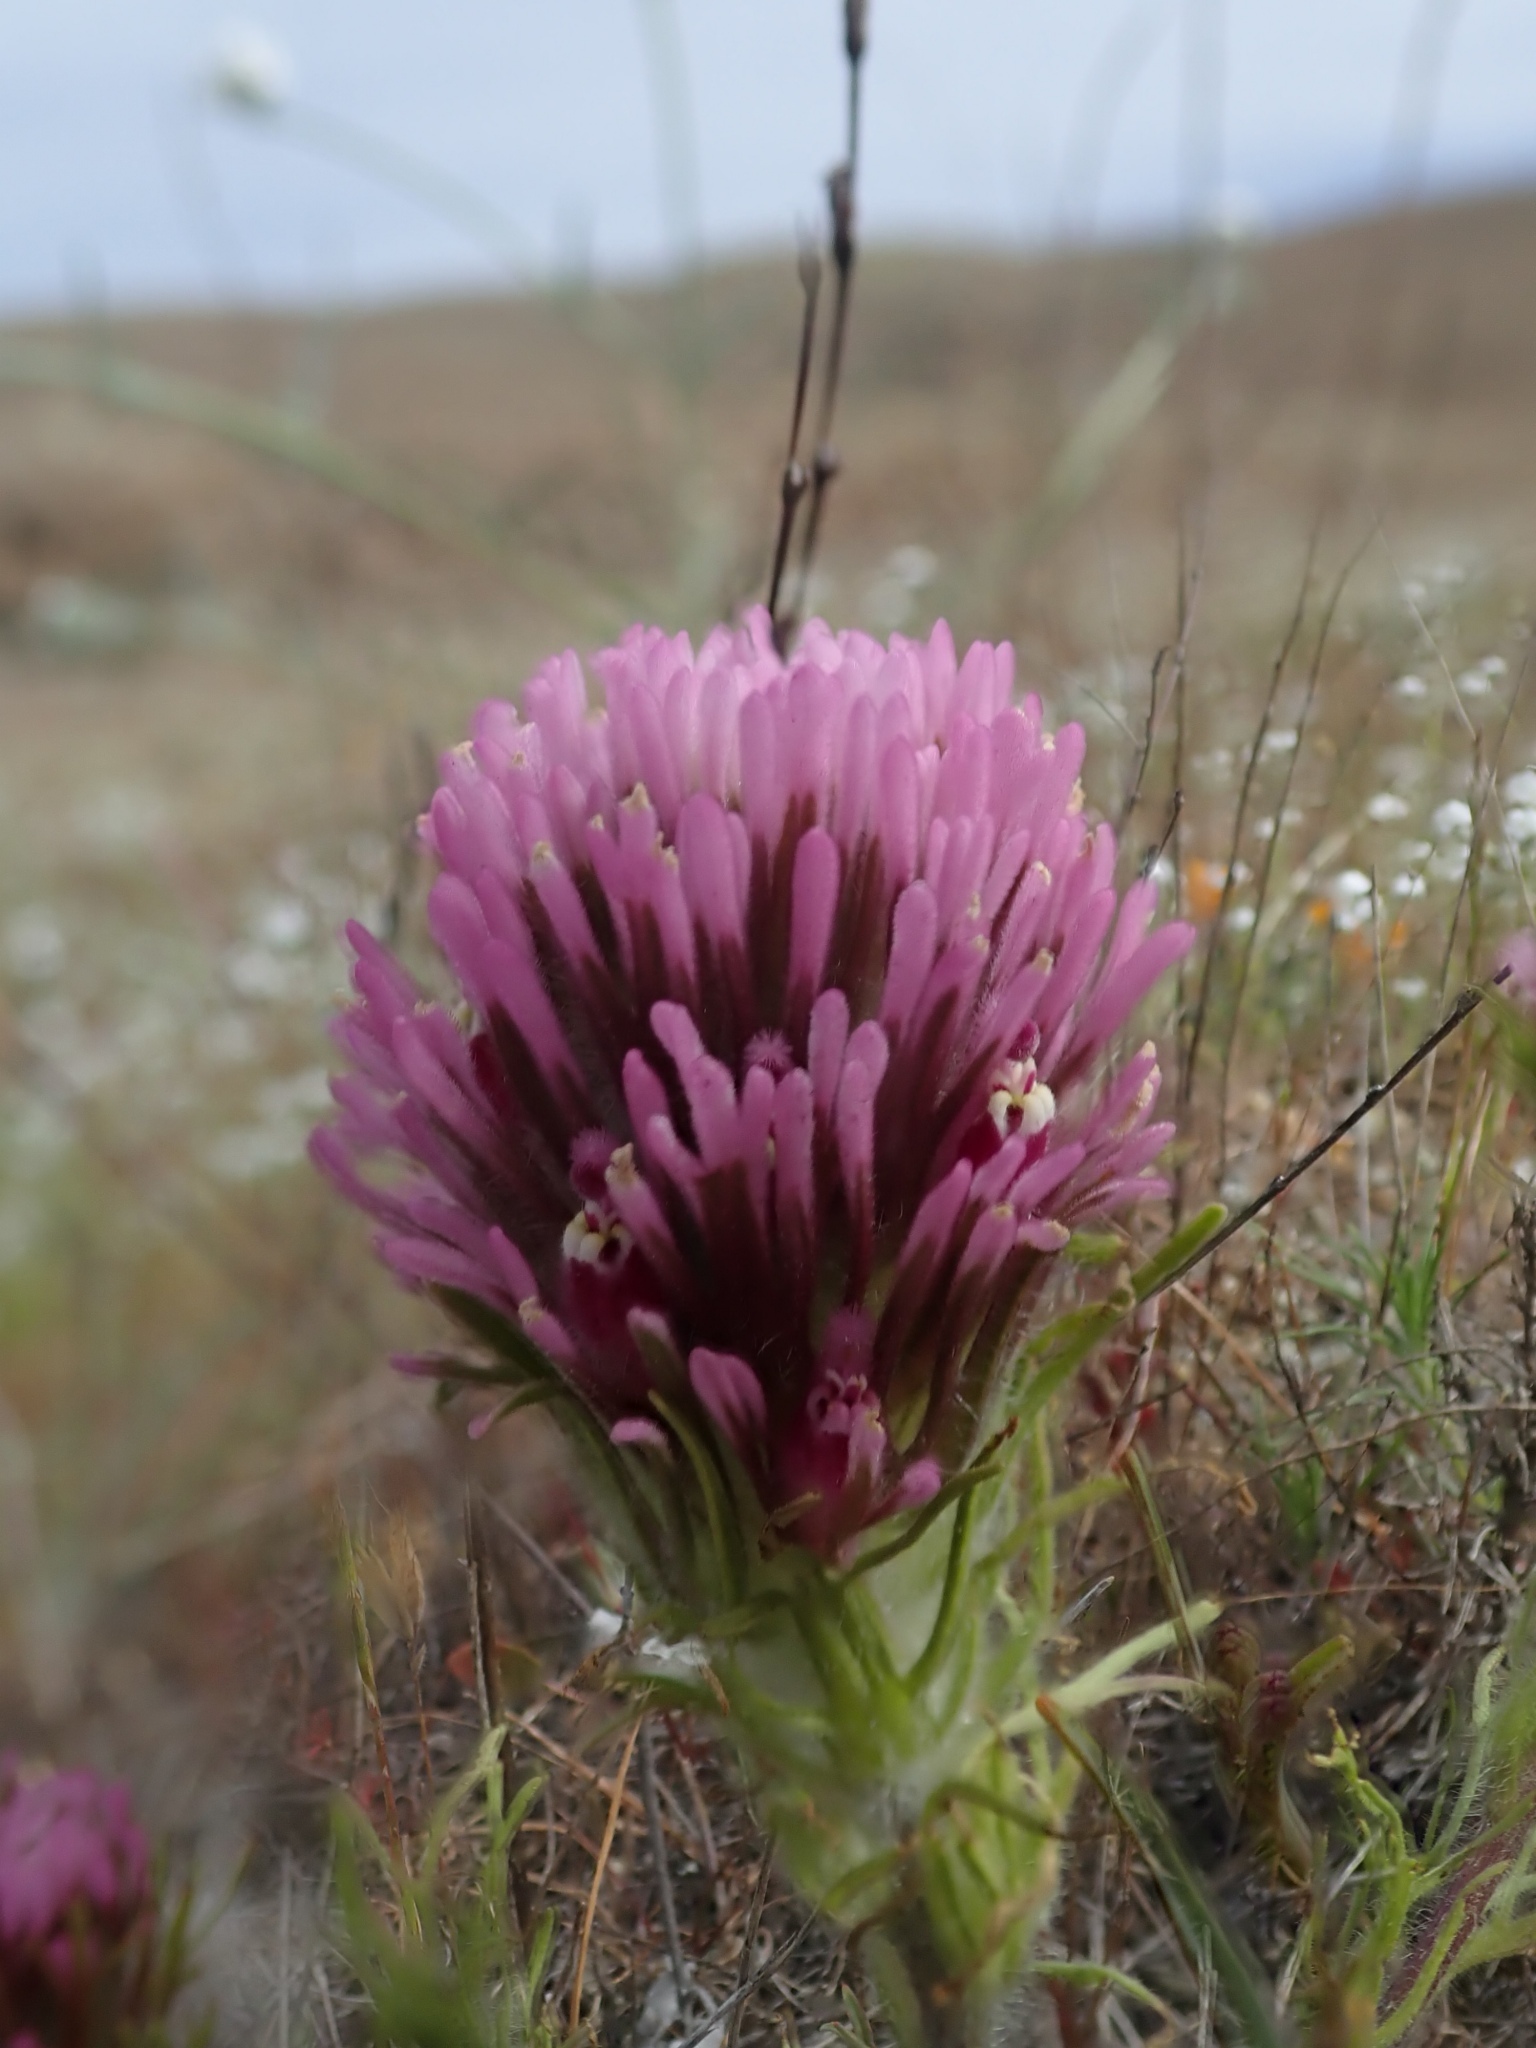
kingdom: Plantae
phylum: Tracheophyta
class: Magnoliopsida
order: Lamiales
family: Orobanchaceae
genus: Castilleja
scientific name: Castilleja exserta
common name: Purple owl-clover
